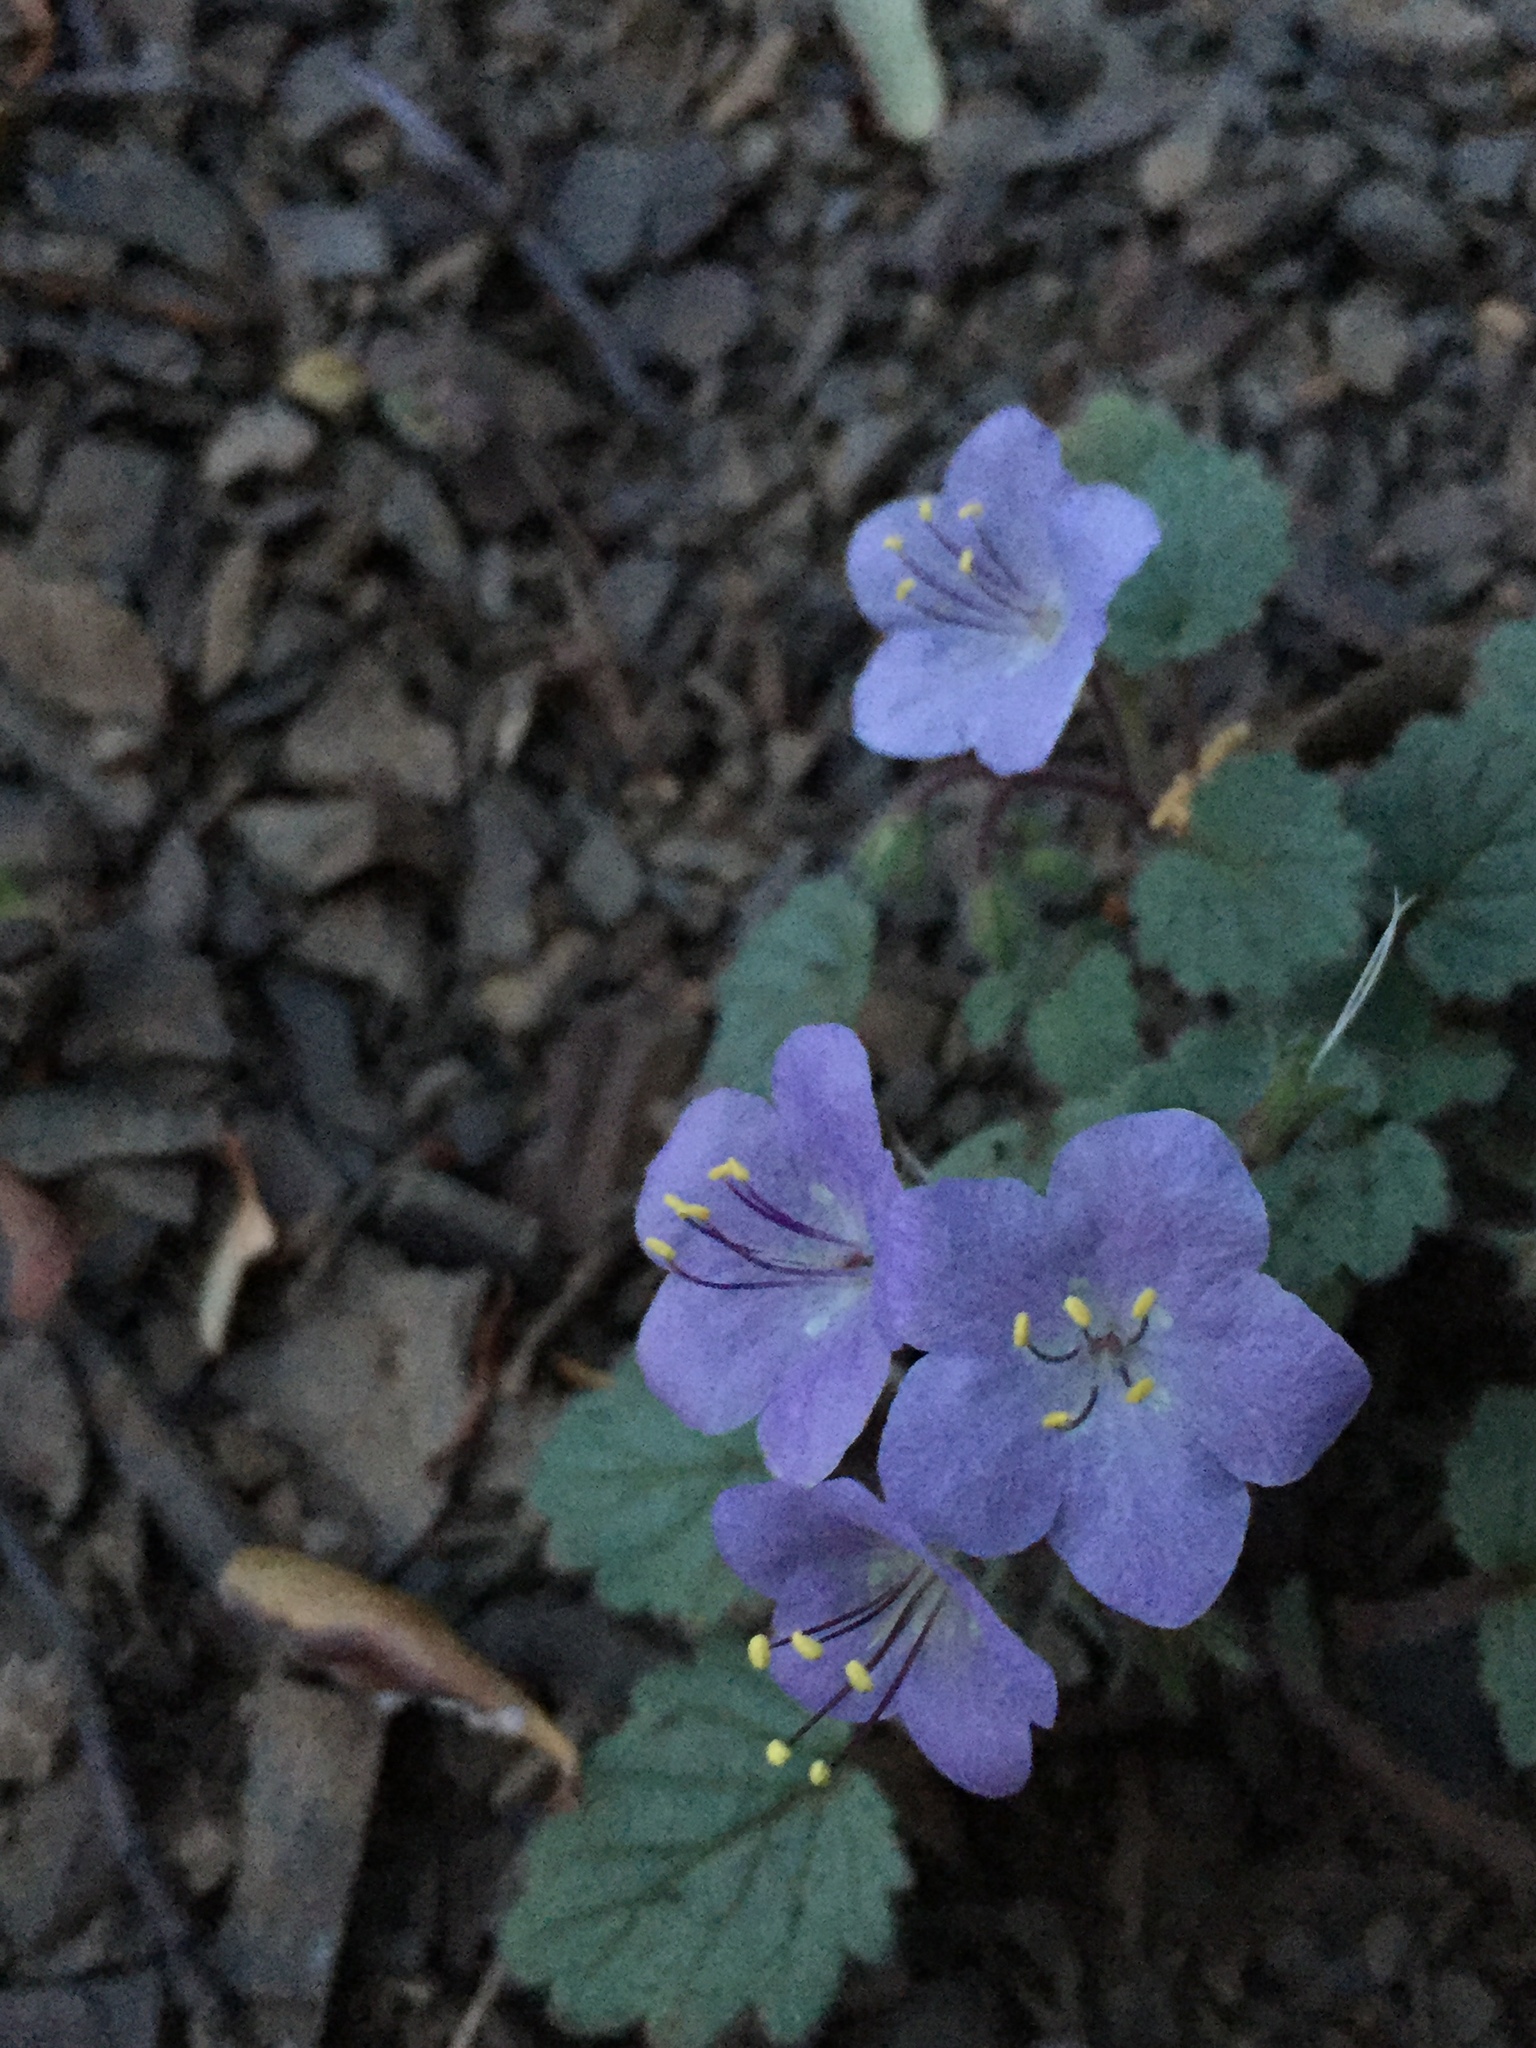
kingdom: Plantae
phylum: Tracheophyta
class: Magnoliopsida
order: Boraginales
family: Hydrophyllaceae
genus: Phacelia
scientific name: Phacelia longipes
